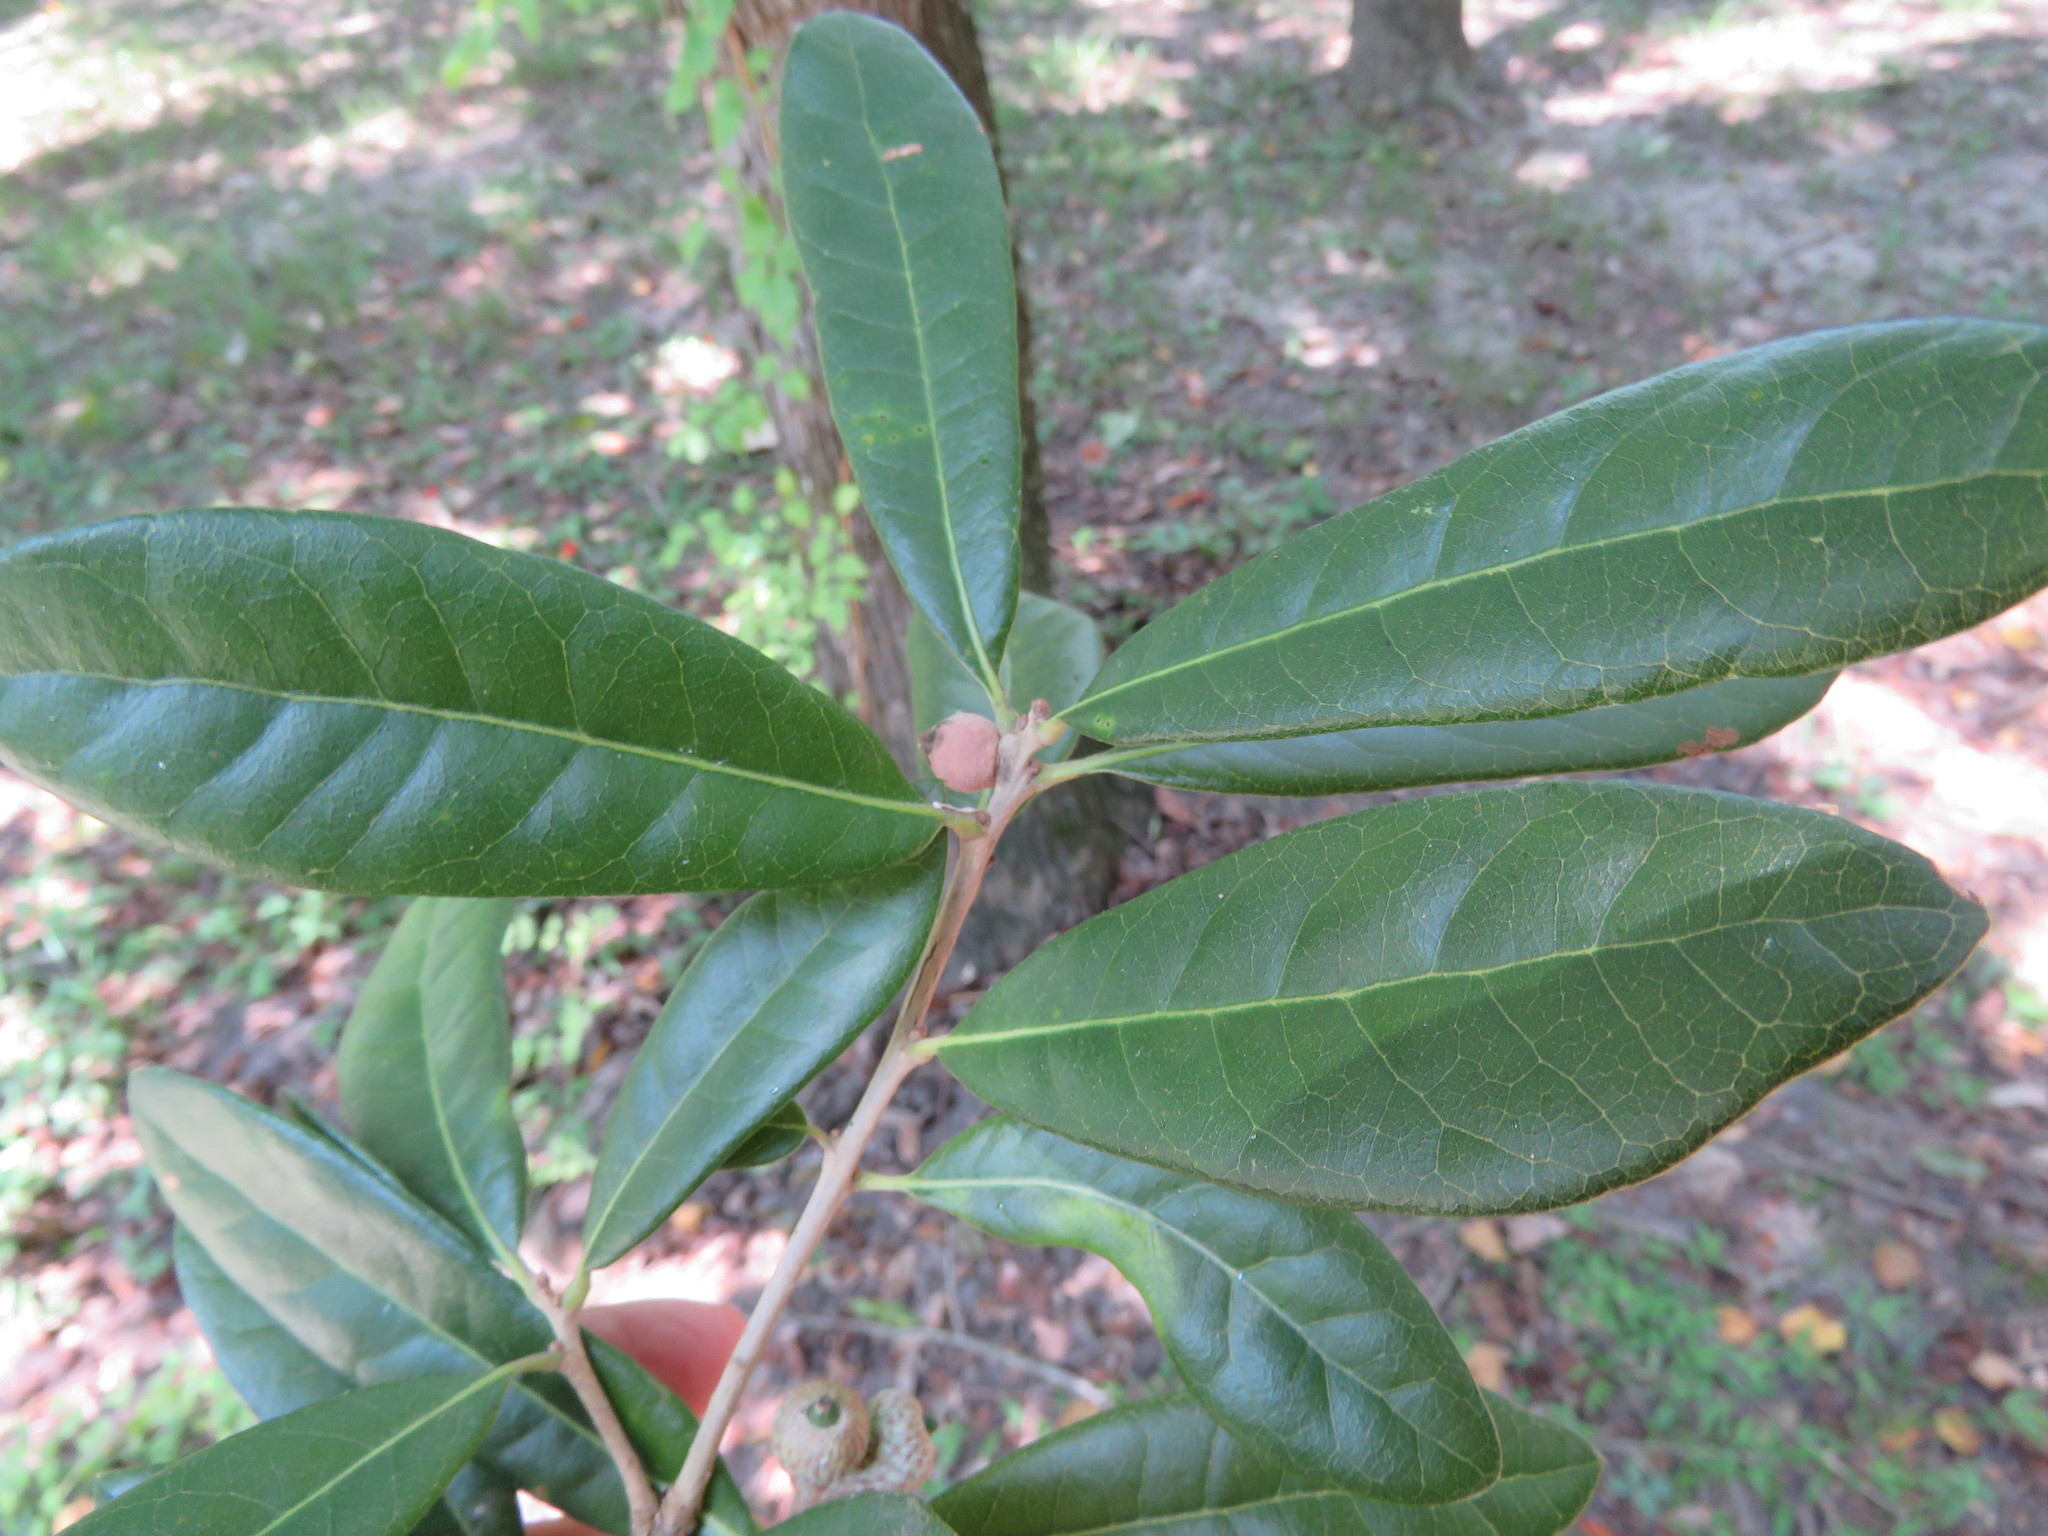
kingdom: Plantae
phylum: Tracheophyta
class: Magnoliopsida
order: Fagales
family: Fagaceae
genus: Quercus
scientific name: Quercus virginiana
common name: Southern live oak
